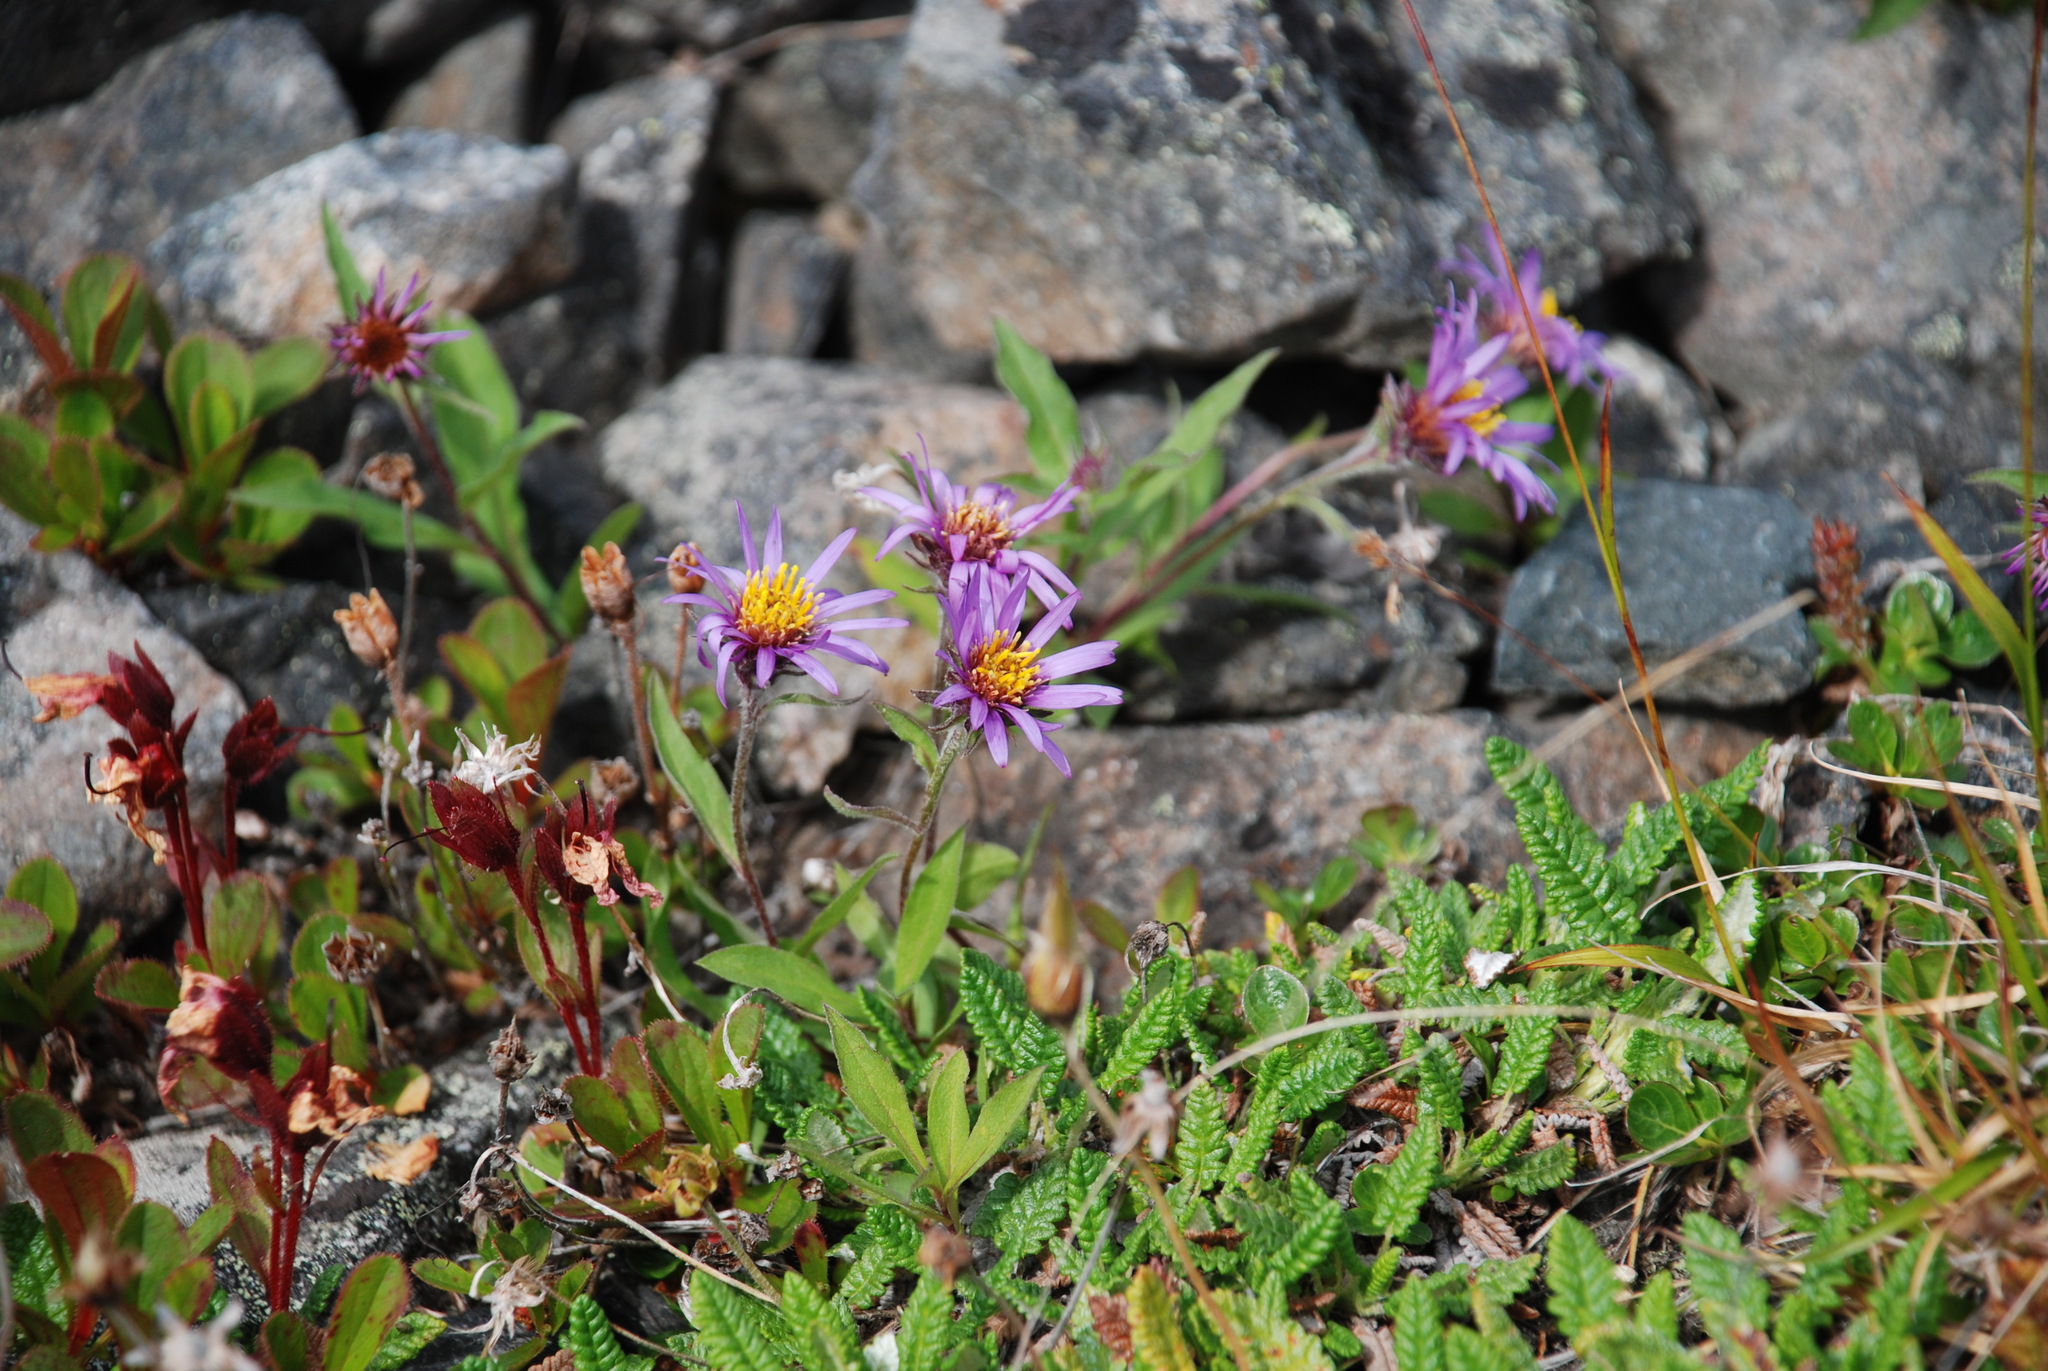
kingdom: Plantae
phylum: Tracheophyta
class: Magnoliopsida
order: Asterales
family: Asteraceae
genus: Eurybia
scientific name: Eurybia sibirica
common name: Arctic aster
